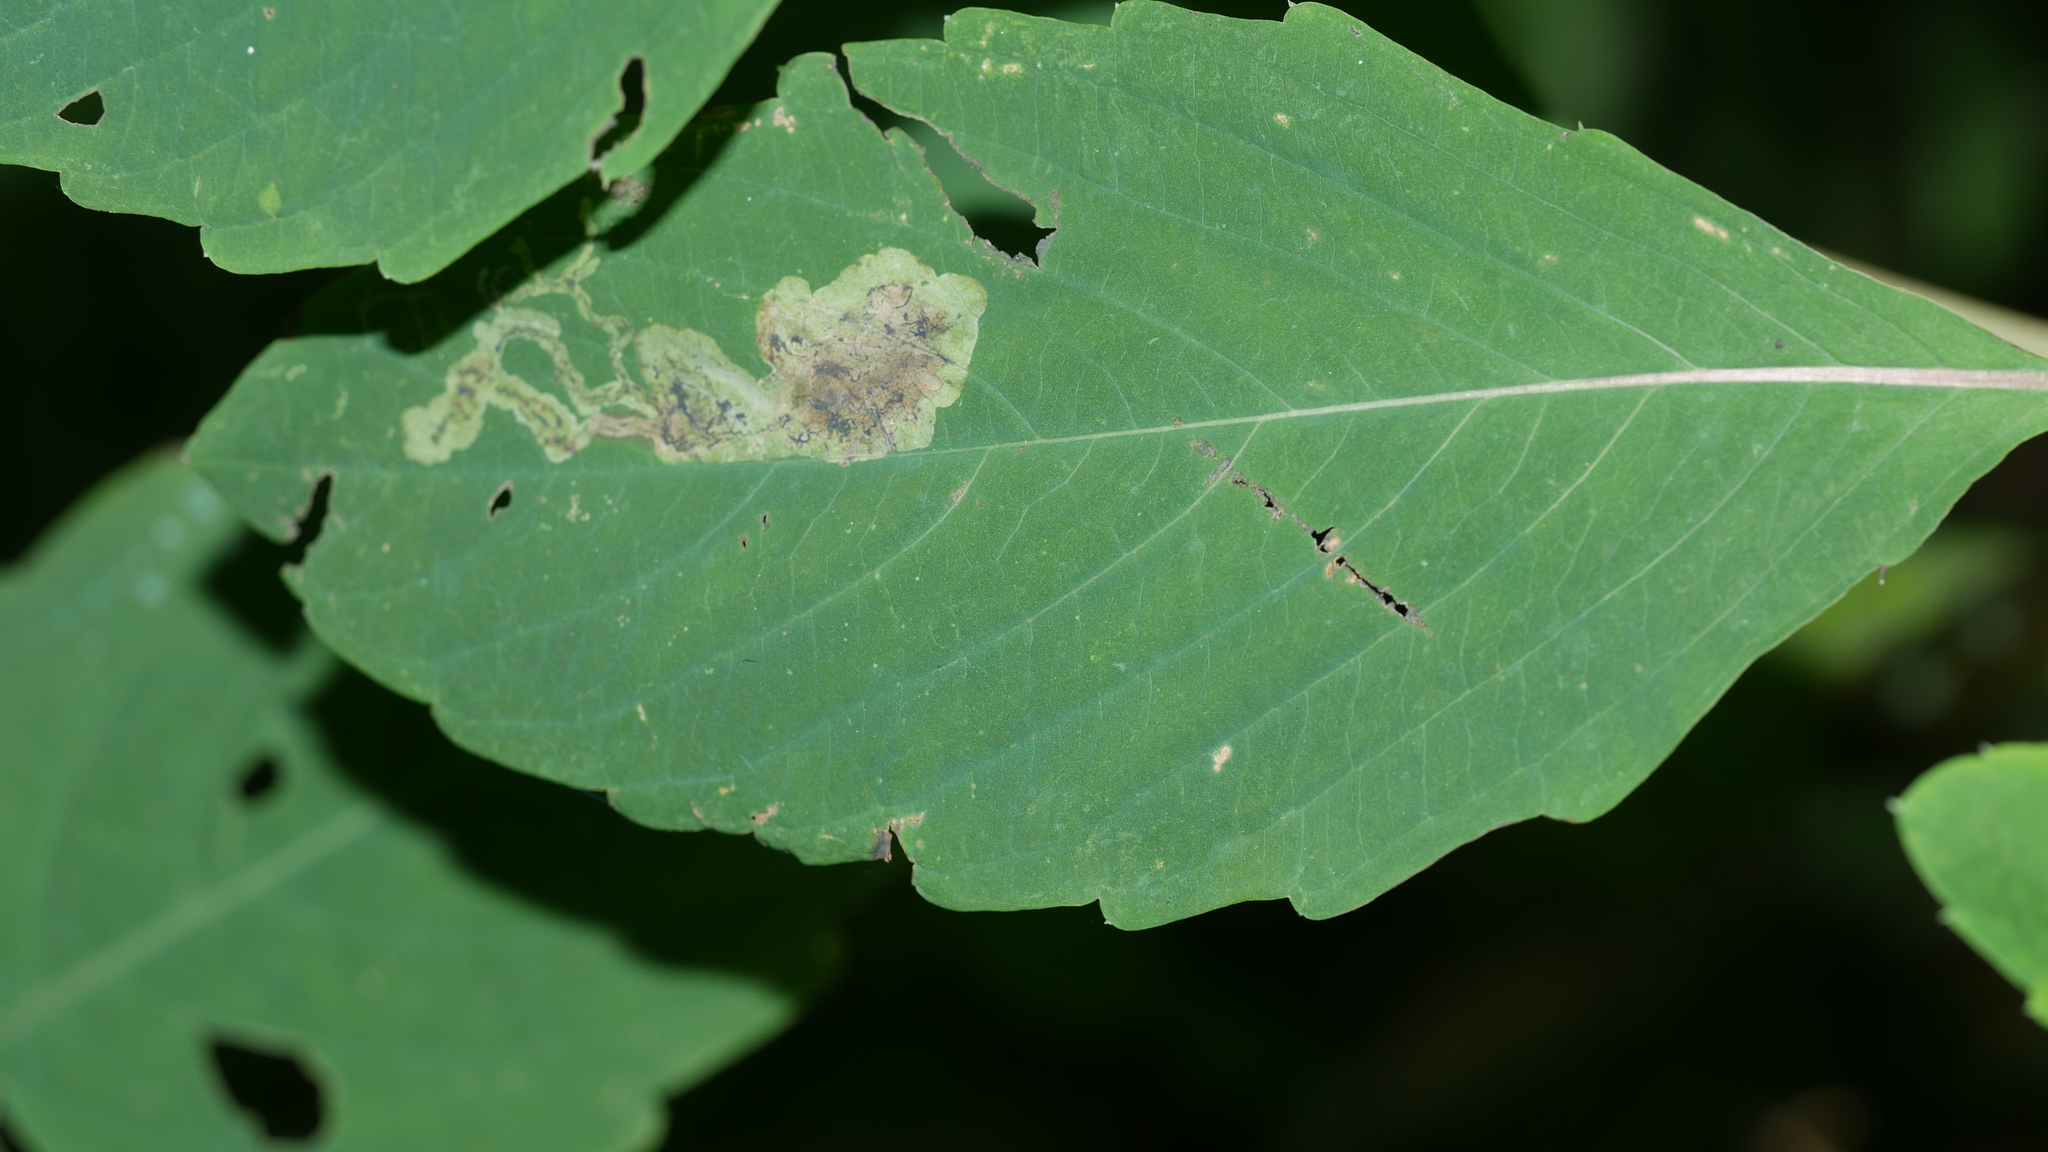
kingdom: Animalia
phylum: Arthropoda
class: Insecta
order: Diptera
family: Agromyzidae
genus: Phytoliriomyza
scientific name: Phytoliriomyza melampyga
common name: Jewelweed leaf-miner fly
